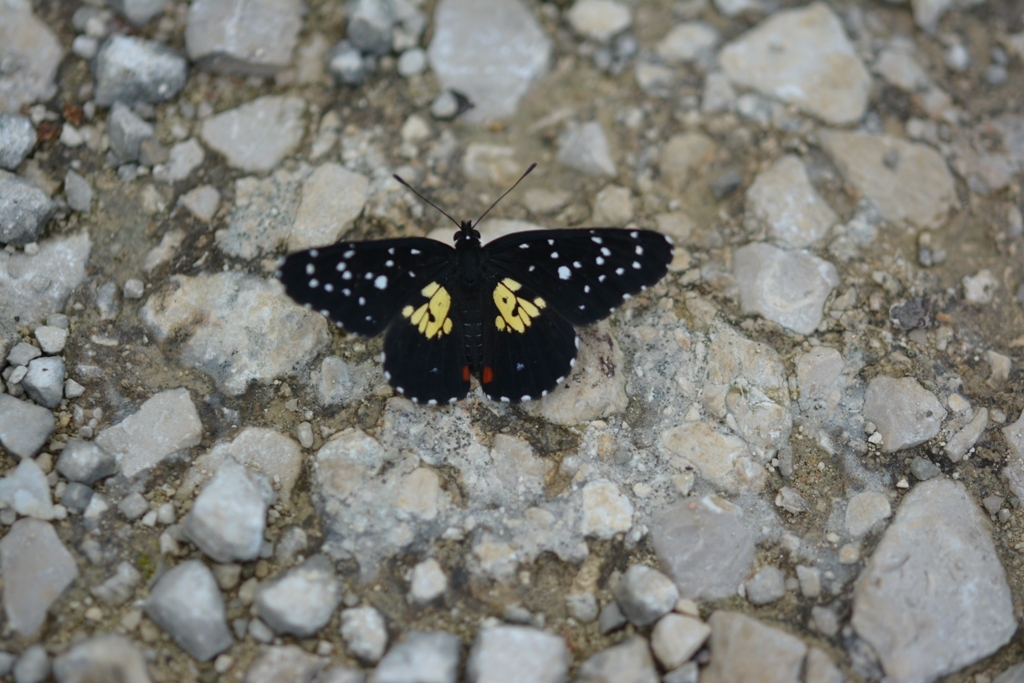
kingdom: Animalia
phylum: Arthropoda
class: Insecta
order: Lepidoptera
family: Nymphalidae
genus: Chlosyne
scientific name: Chlosyne erodyle
